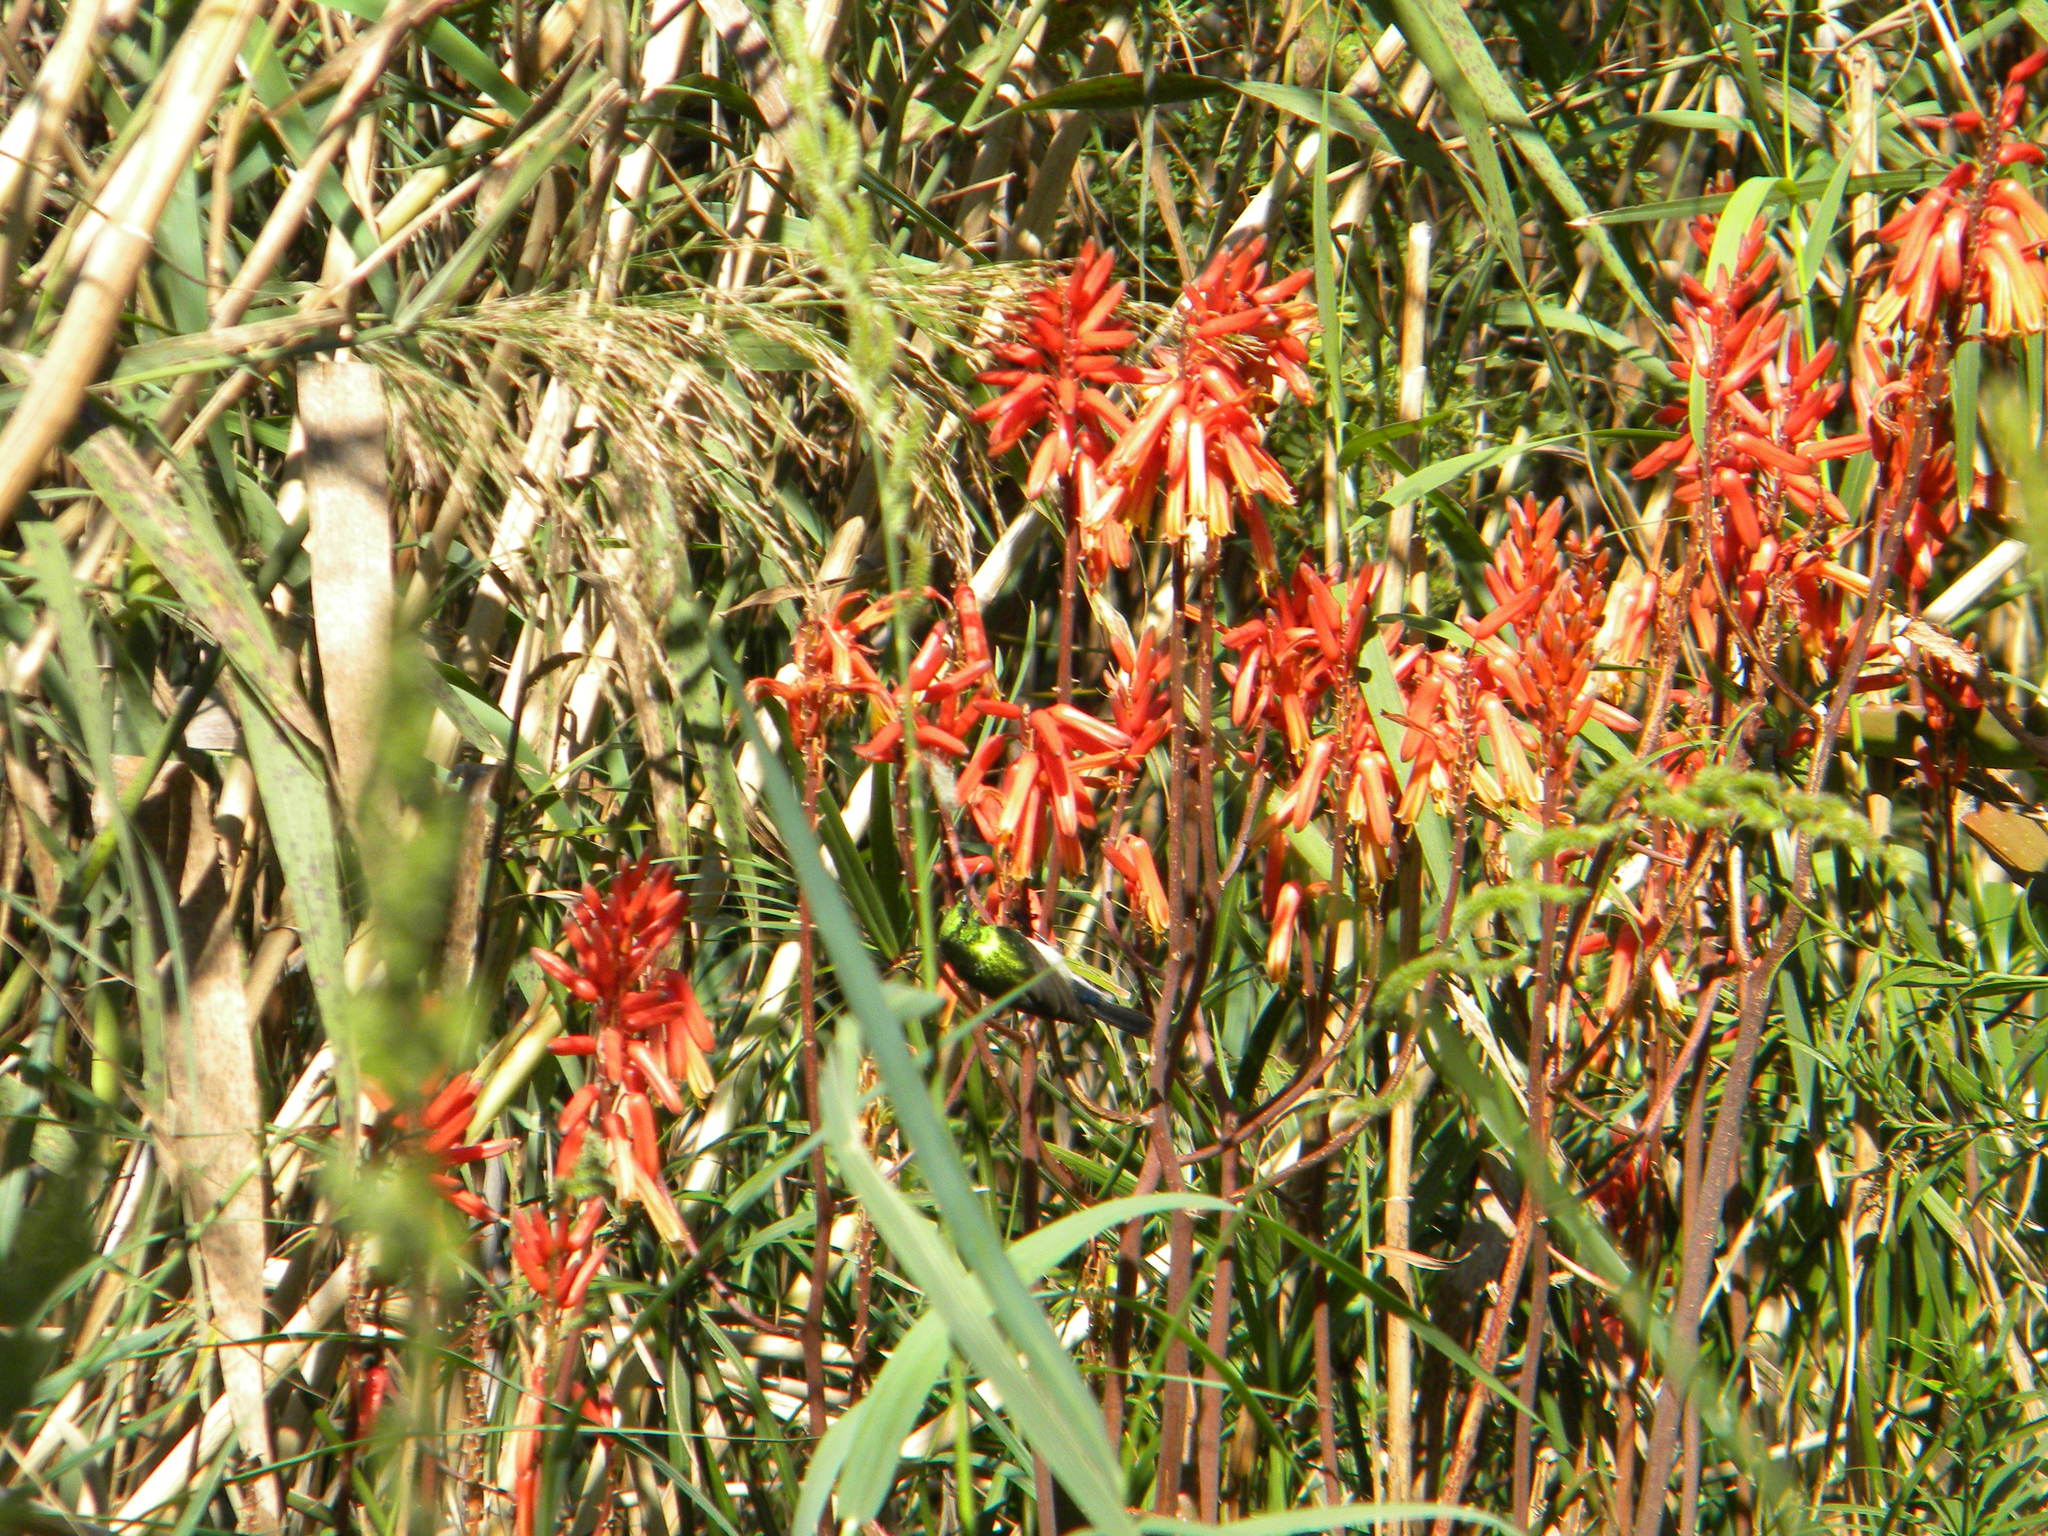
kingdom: Animalia
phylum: Chordata
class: Aves
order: Passeriformes
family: Nectariniidae
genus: Cinnyris
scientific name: Cinnyris chalybeus
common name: Southern double-collared sunbird
